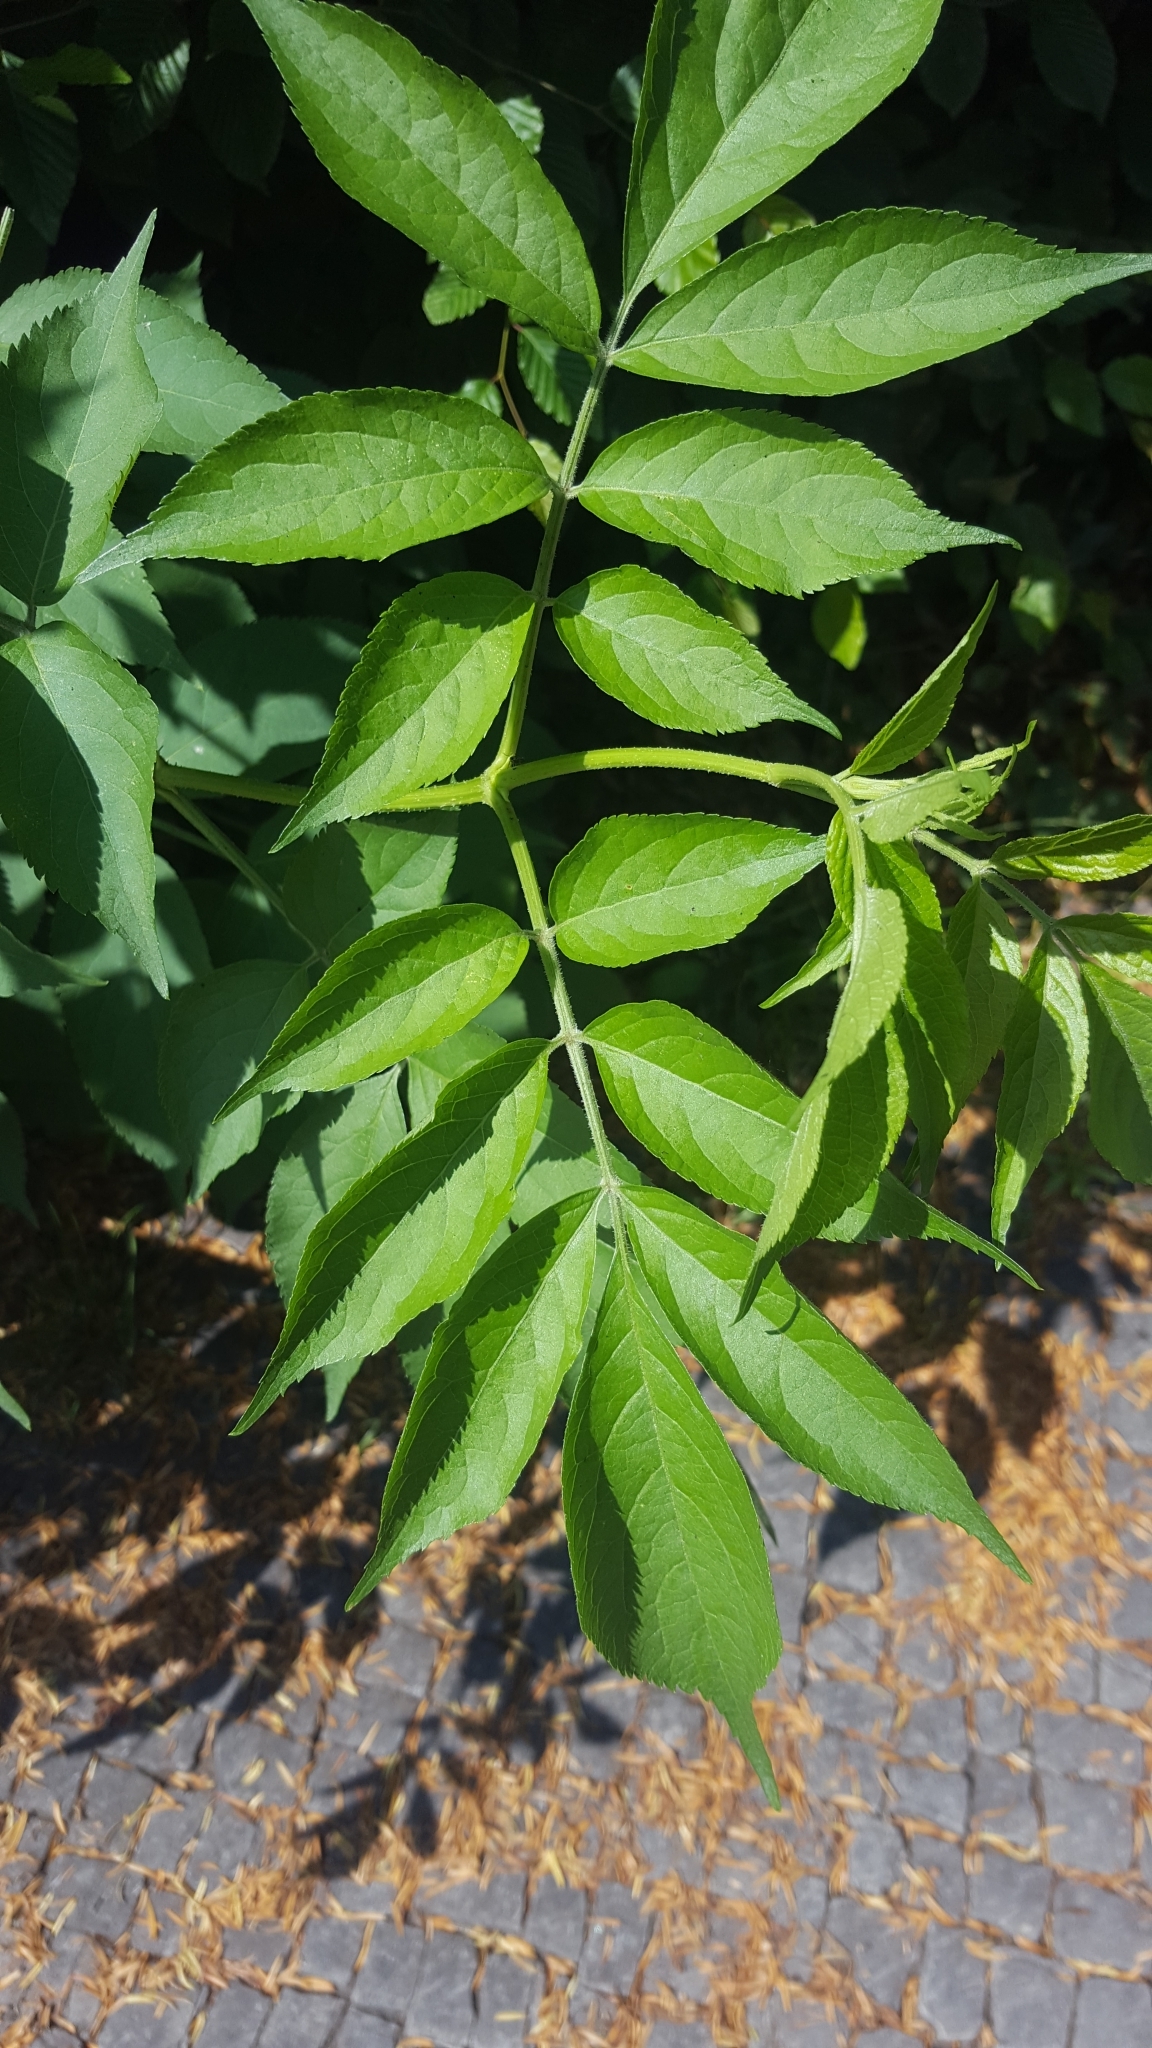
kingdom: Plantae
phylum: Tracheophyta
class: Magnoliopsida
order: Dipsacales
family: Viburnaceae
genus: Sambucus
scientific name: Sambucus nigra
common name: Elder
